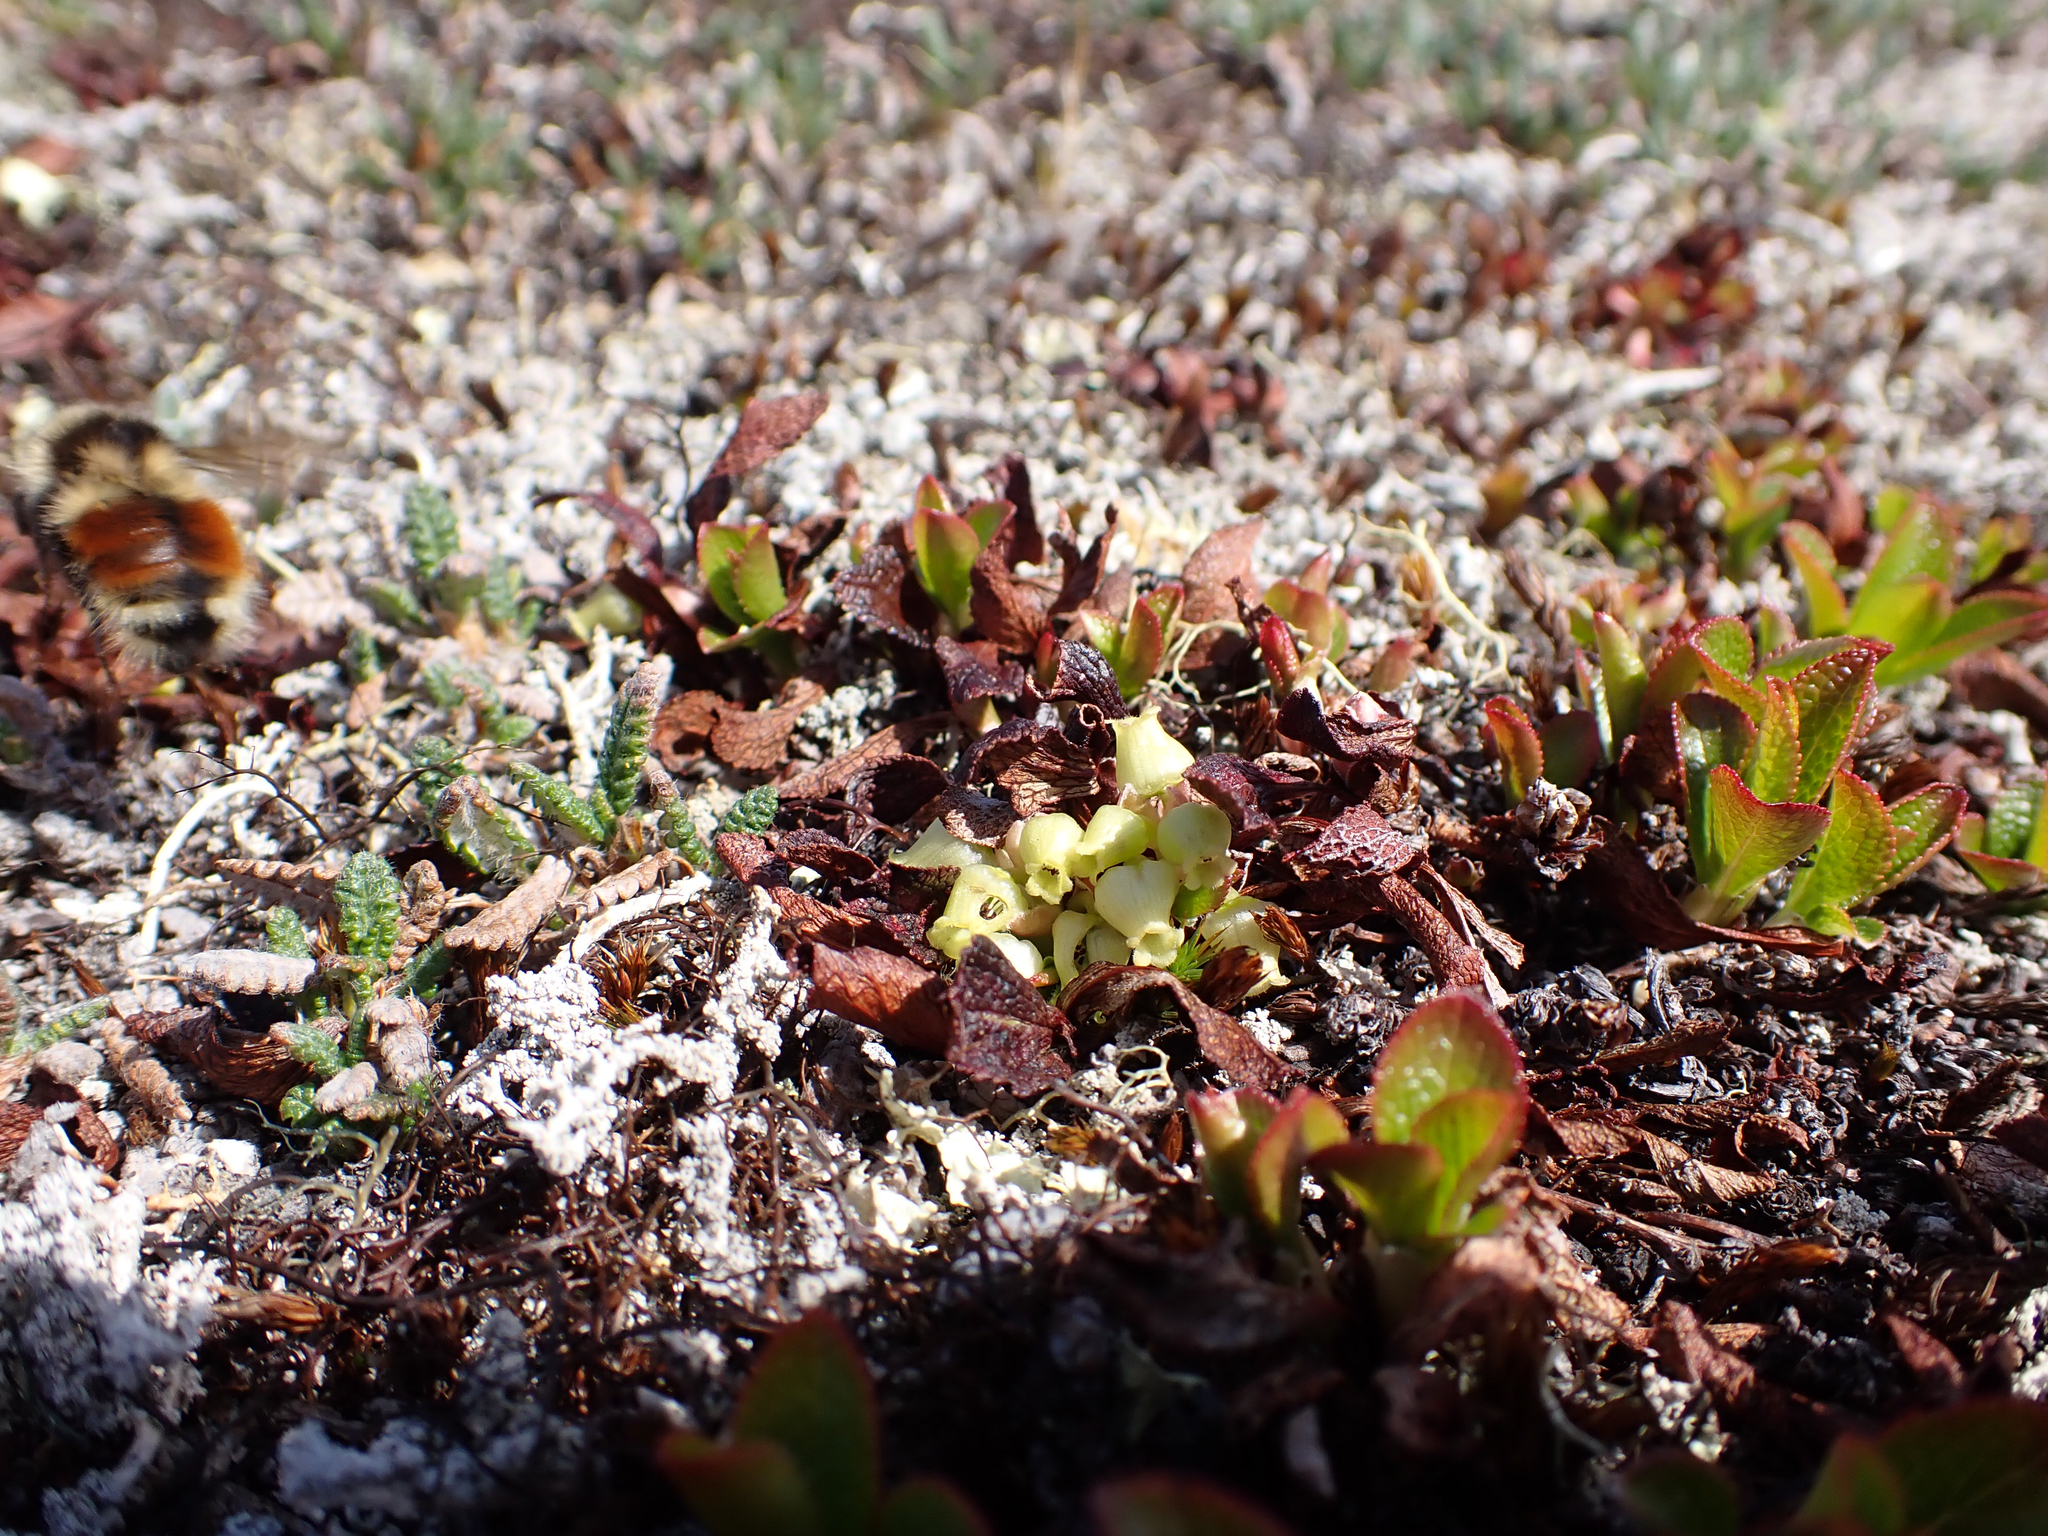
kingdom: Plantae
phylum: Tracheophyta
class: Magnoliopsida
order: Ericales
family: Ericaceae
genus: Arctostaphylos
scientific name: Arctostaphylos alpinus
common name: Alpine bearberry
